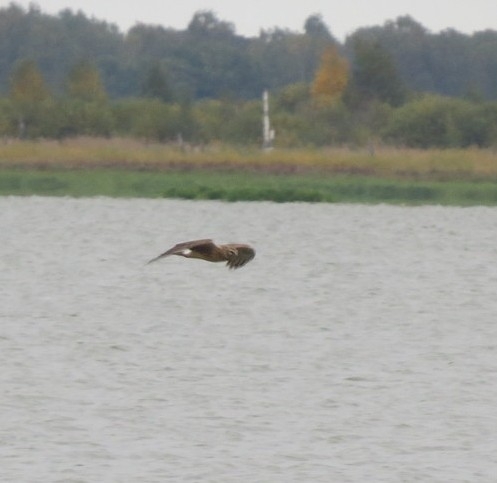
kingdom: Animalia
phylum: Chordata
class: Aves
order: Accipitriformes
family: Accipitridae
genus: Circus
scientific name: Circus cyaneus
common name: Hen harrier
